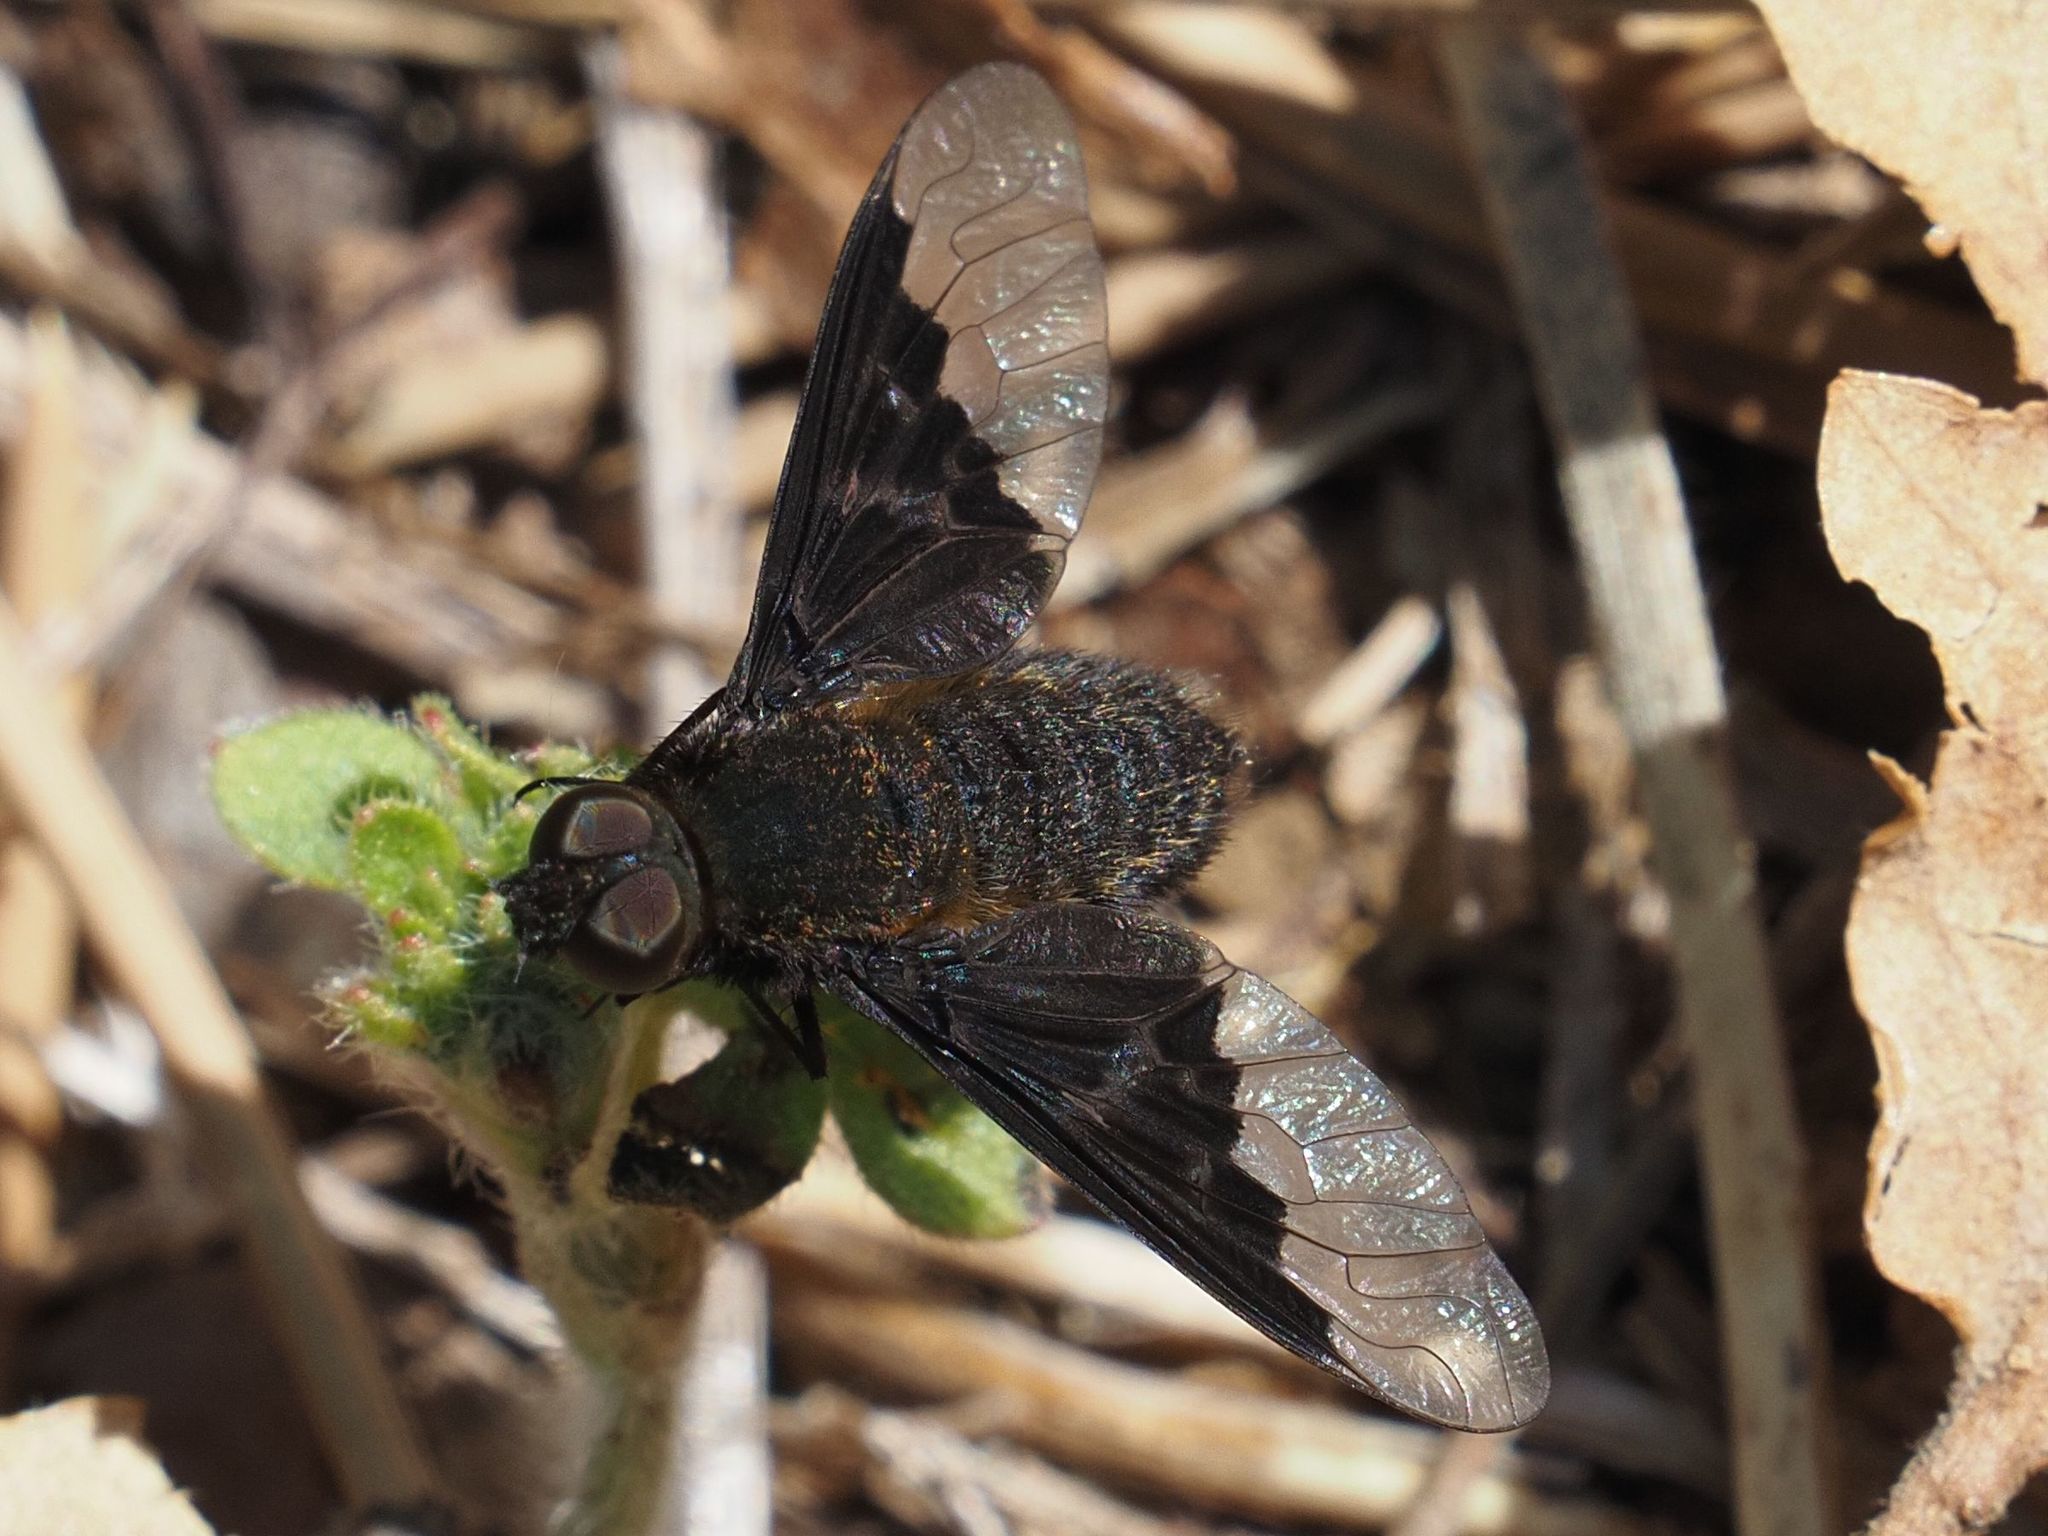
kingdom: Animalia
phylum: Arthropoda
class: Insecta
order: Diptera
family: Bombyliidae
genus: Hemipenthes
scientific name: Hemipenthes morio
